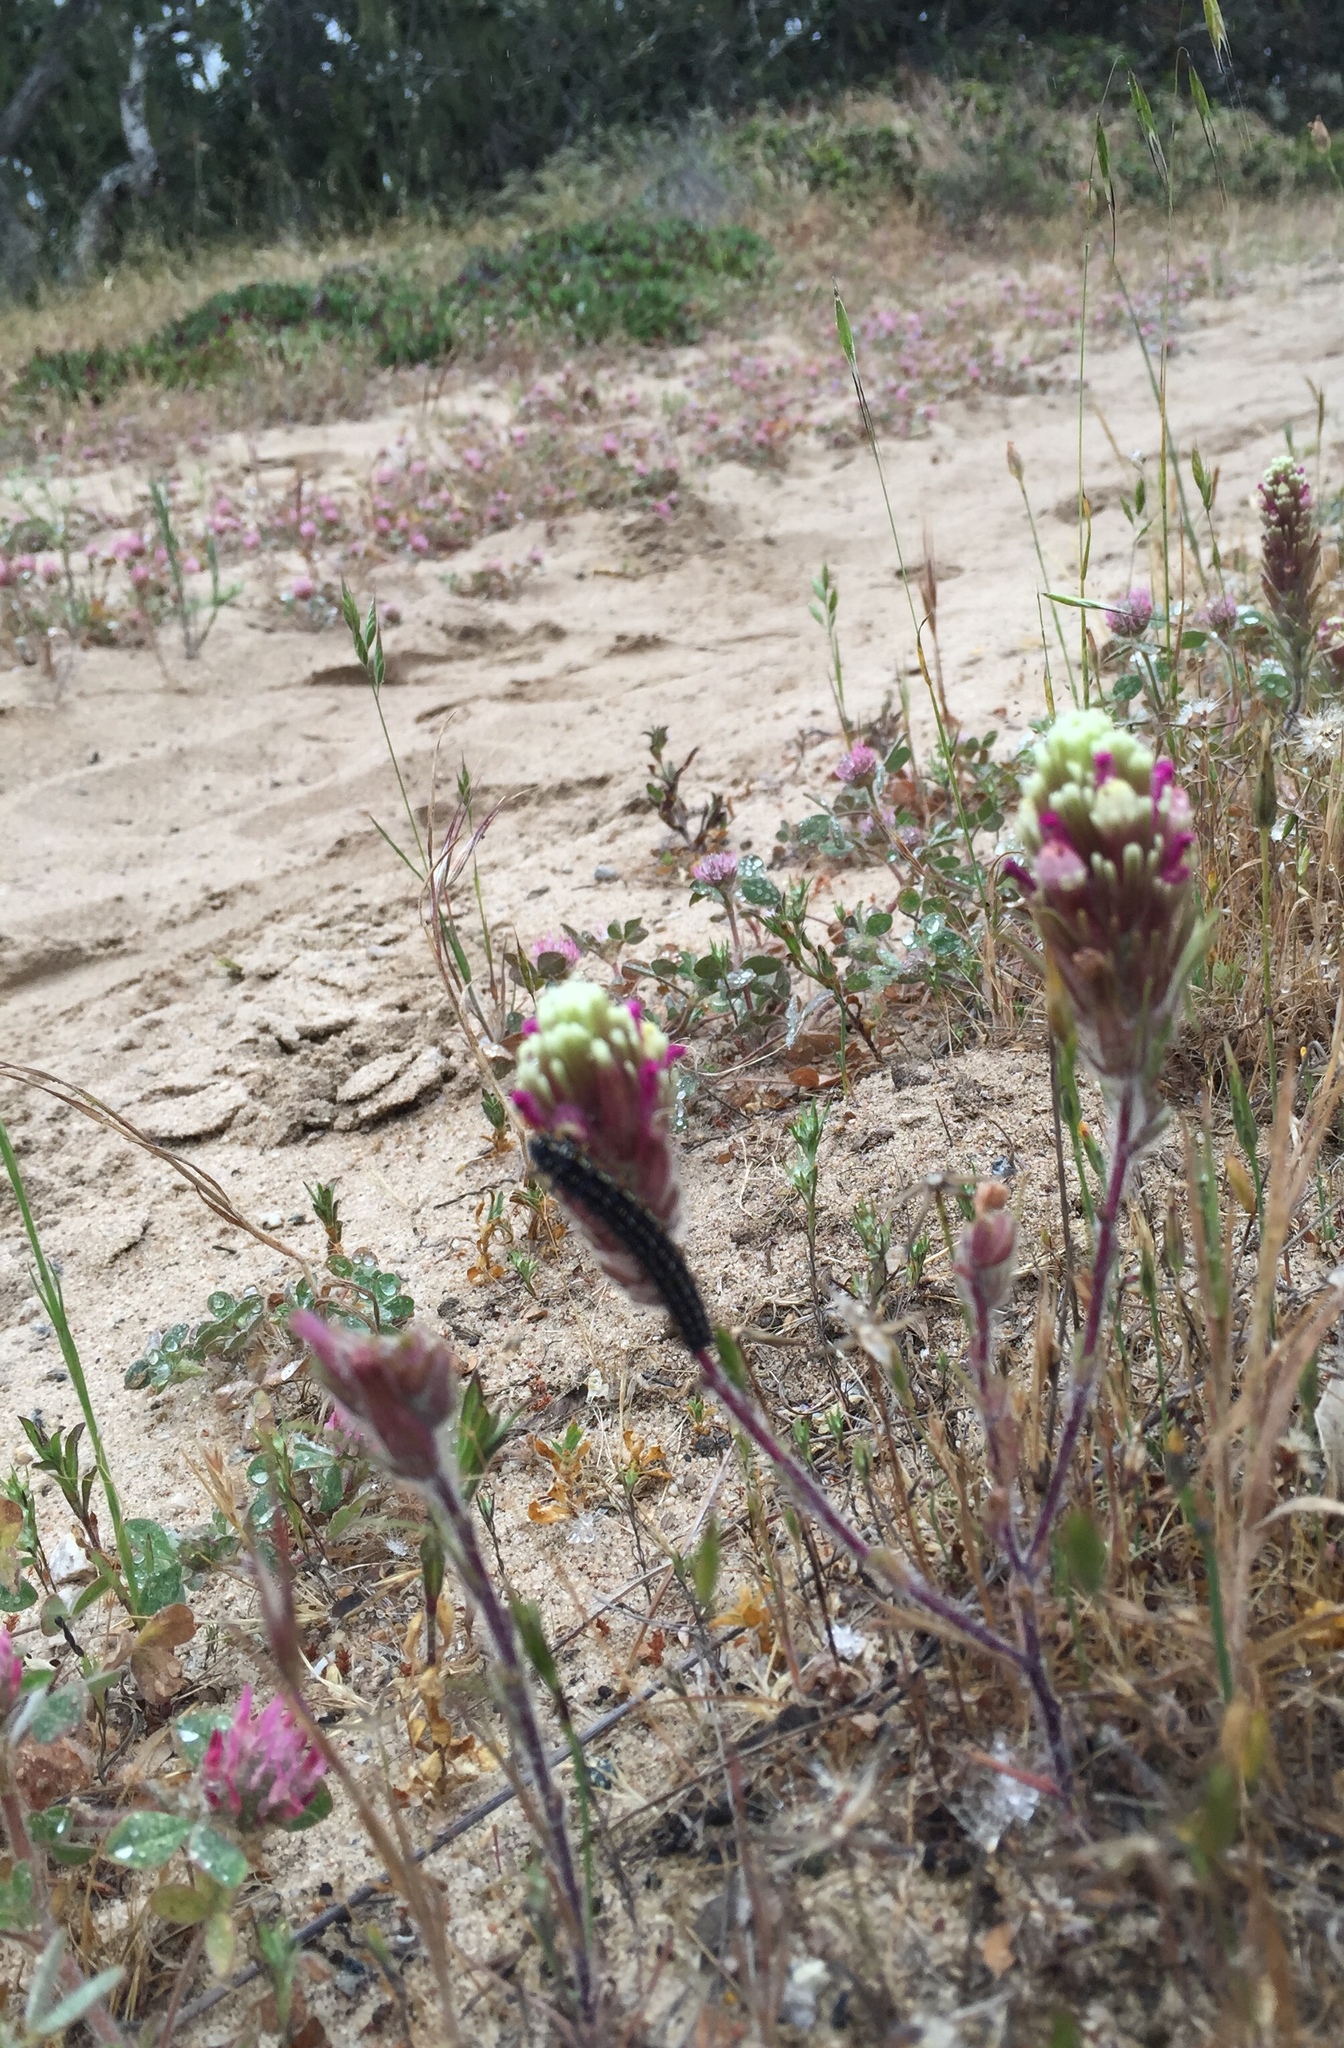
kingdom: Plantae
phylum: Tracheophyta
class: Magnoliopsida
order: Lamiales
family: Orobanchaceae
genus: Castilleja
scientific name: Castilleja exserta
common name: Purple owl-clover
